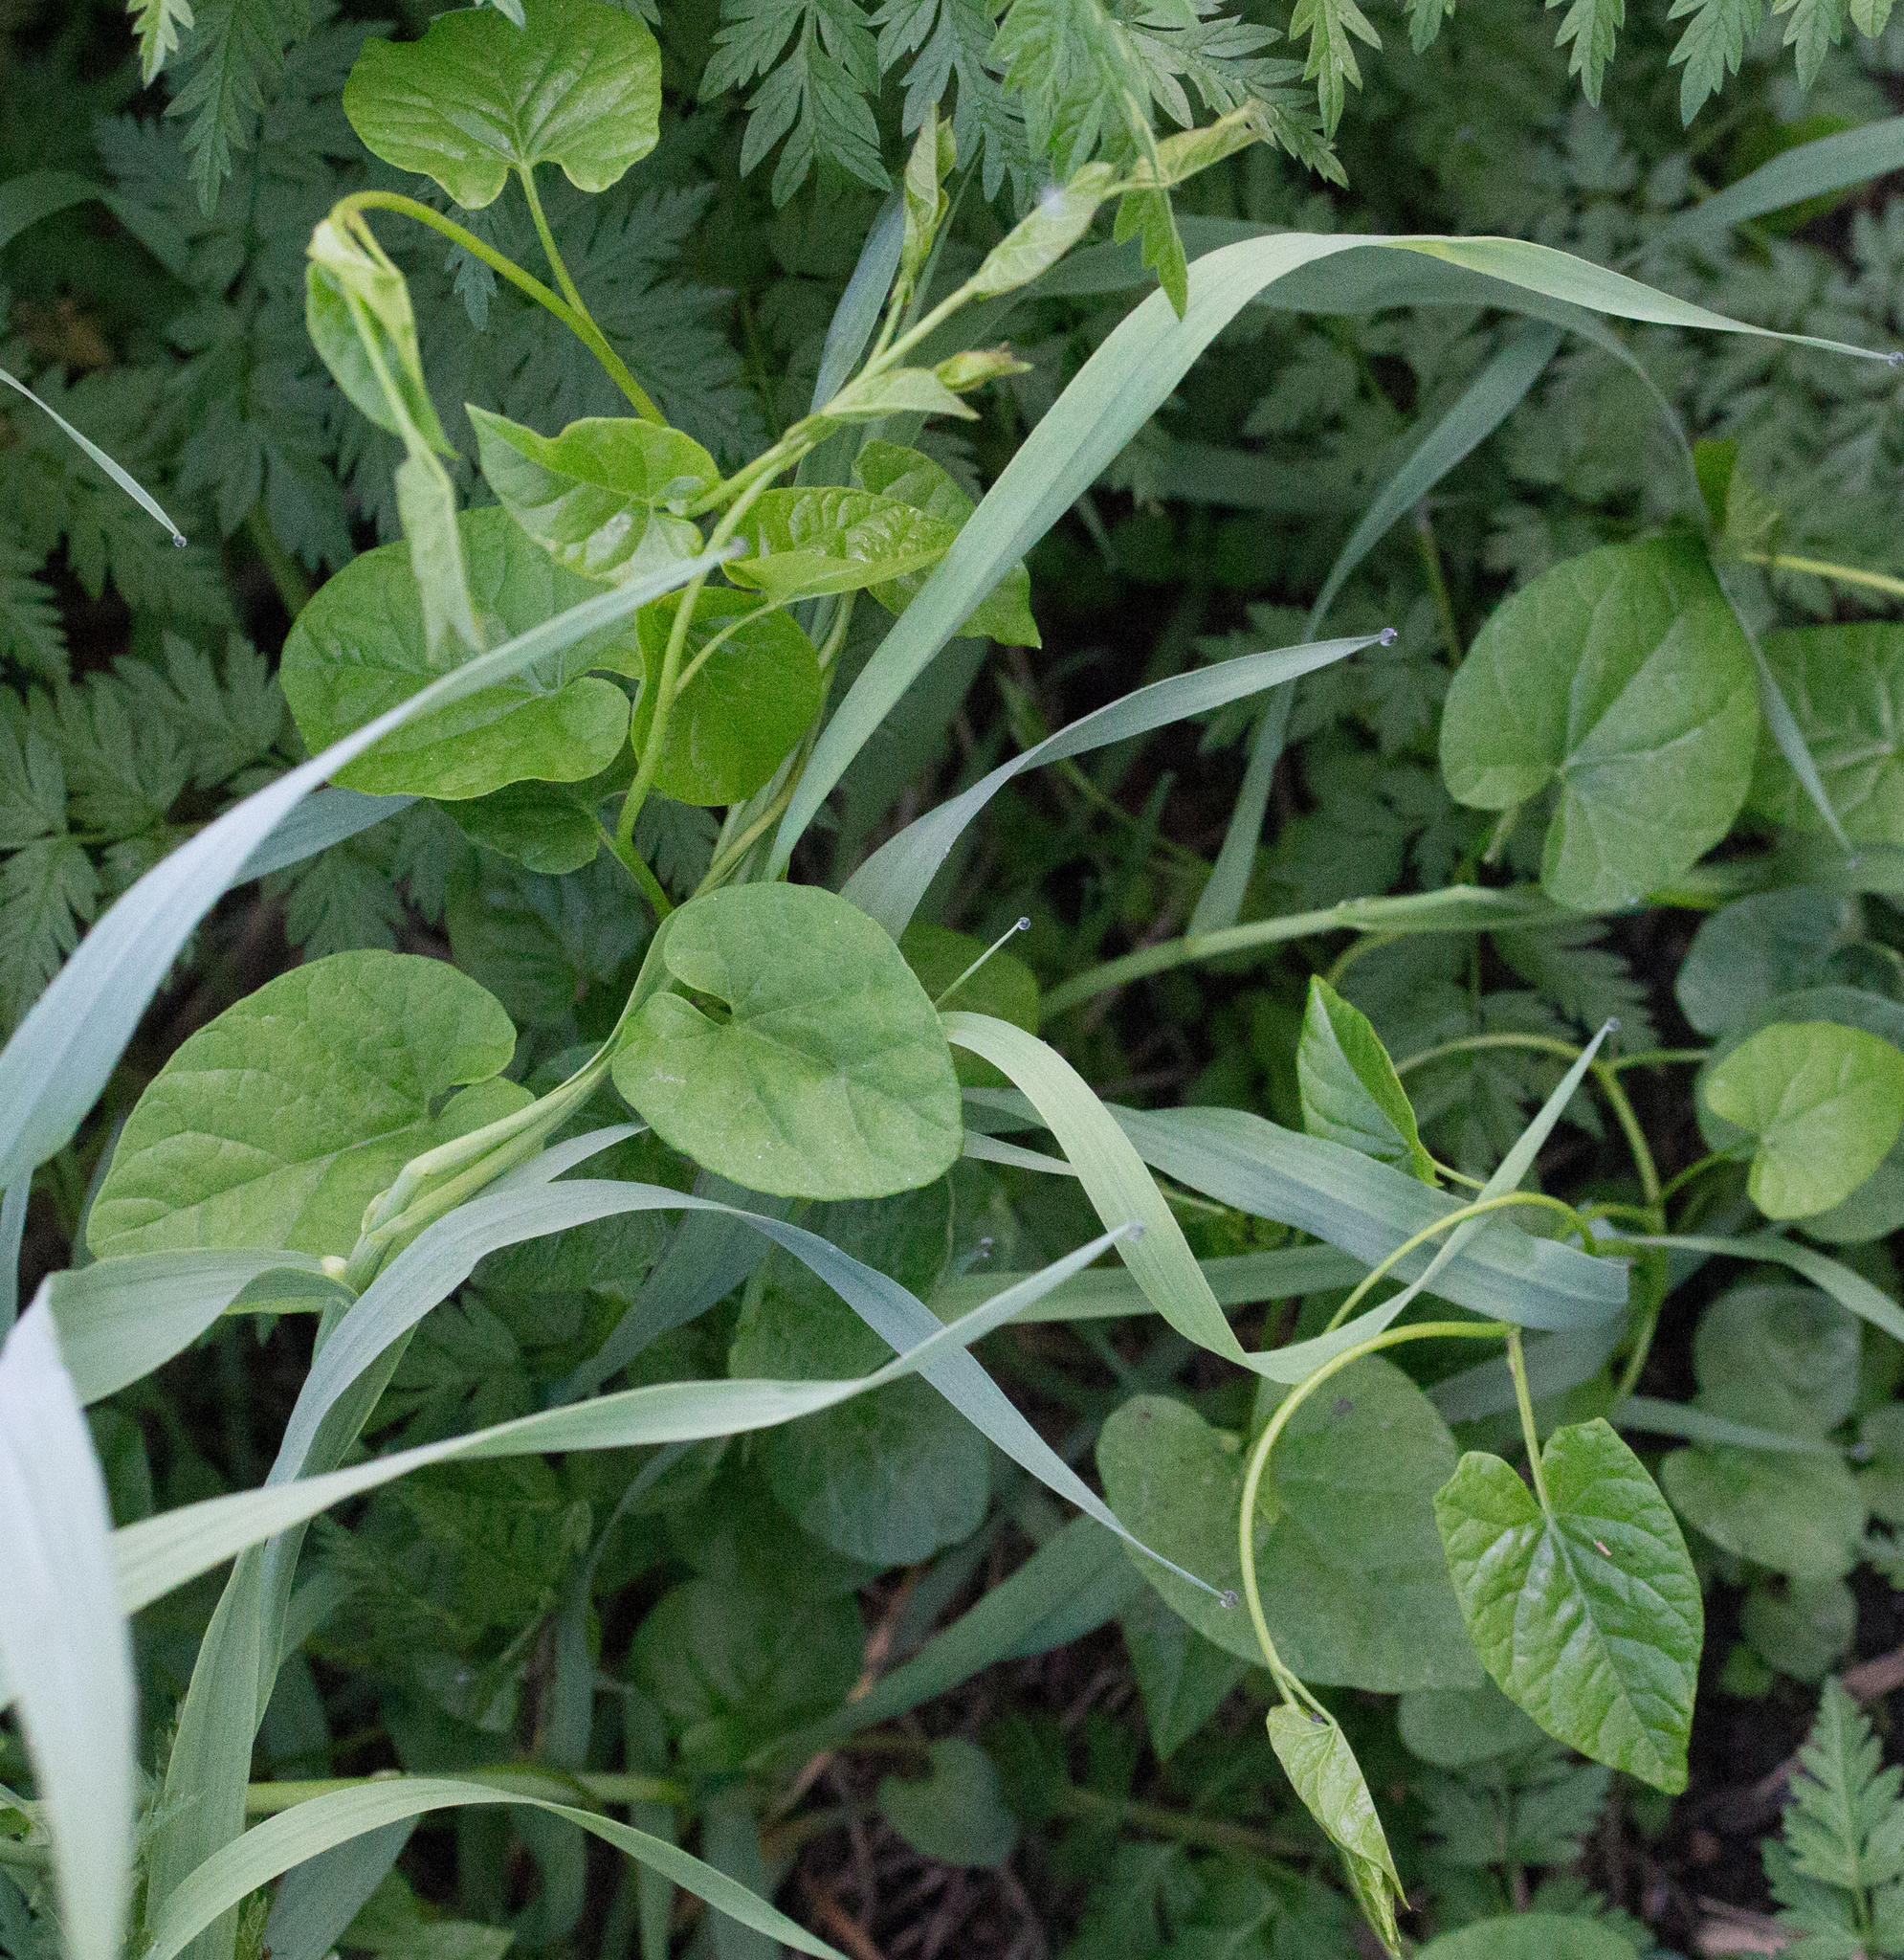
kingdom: Plantae
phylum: Tracheophyta
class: Magnoliopsida
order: Solanales
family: Convolvulaceae
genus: Calystegia
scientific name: Calystegia
